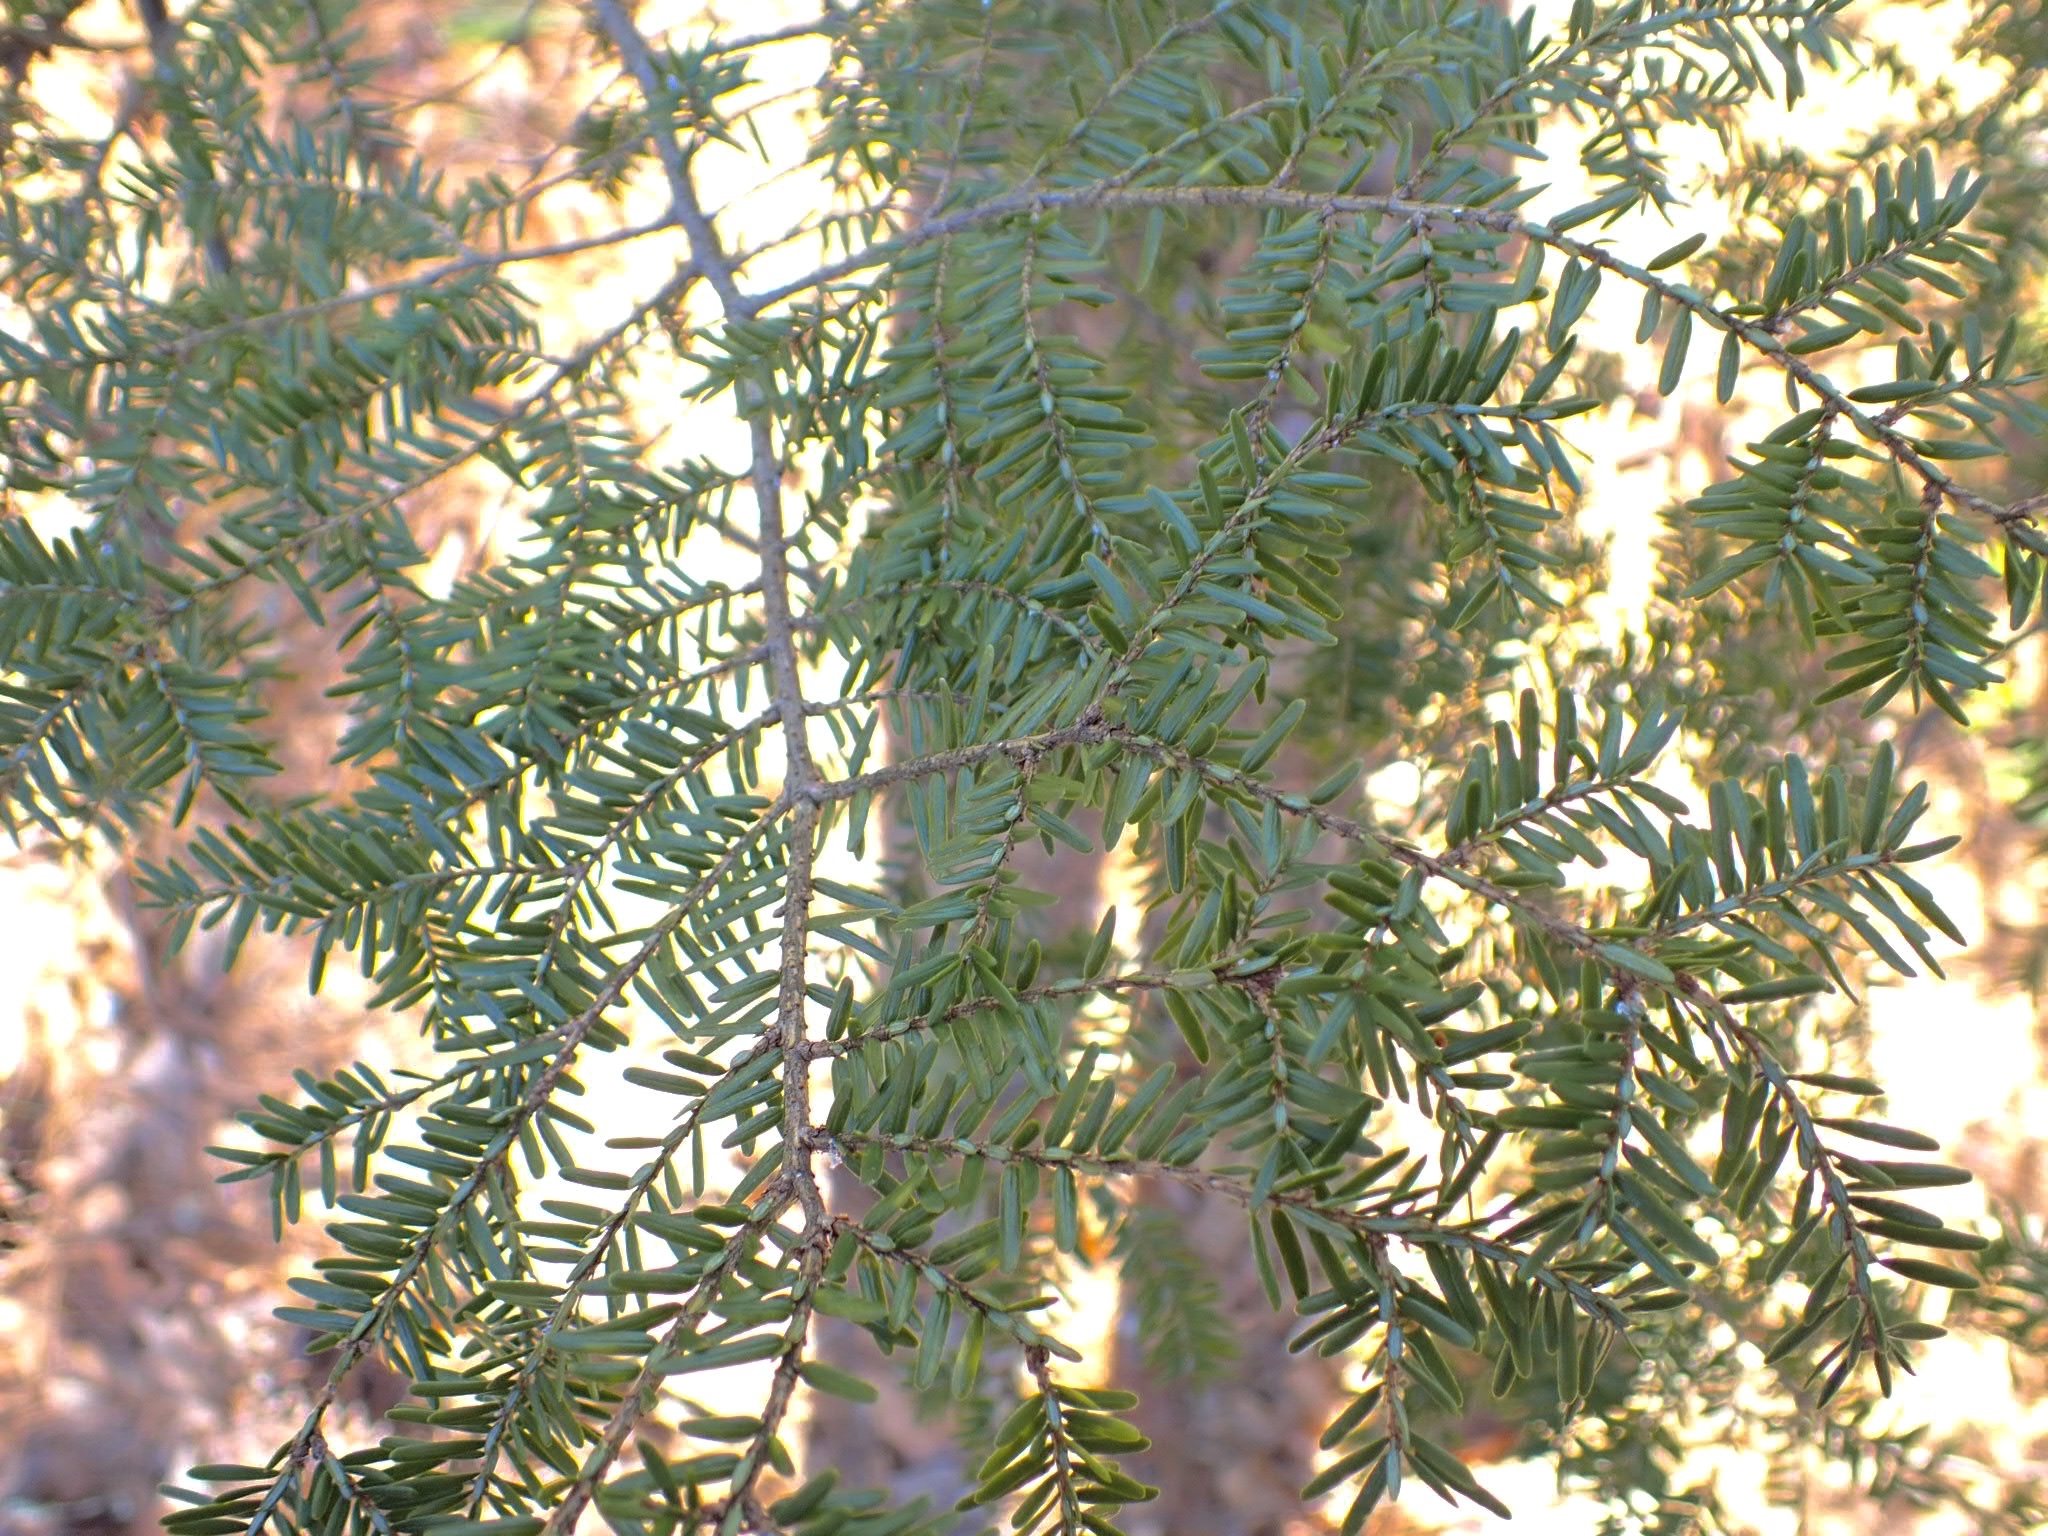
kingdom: Plantae
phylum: Tracheophyta
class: Pinopsida
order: Pinales
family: Pinaceae
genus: Tsuga
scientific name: Tsuga canadensis
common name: Eastern hemlock
